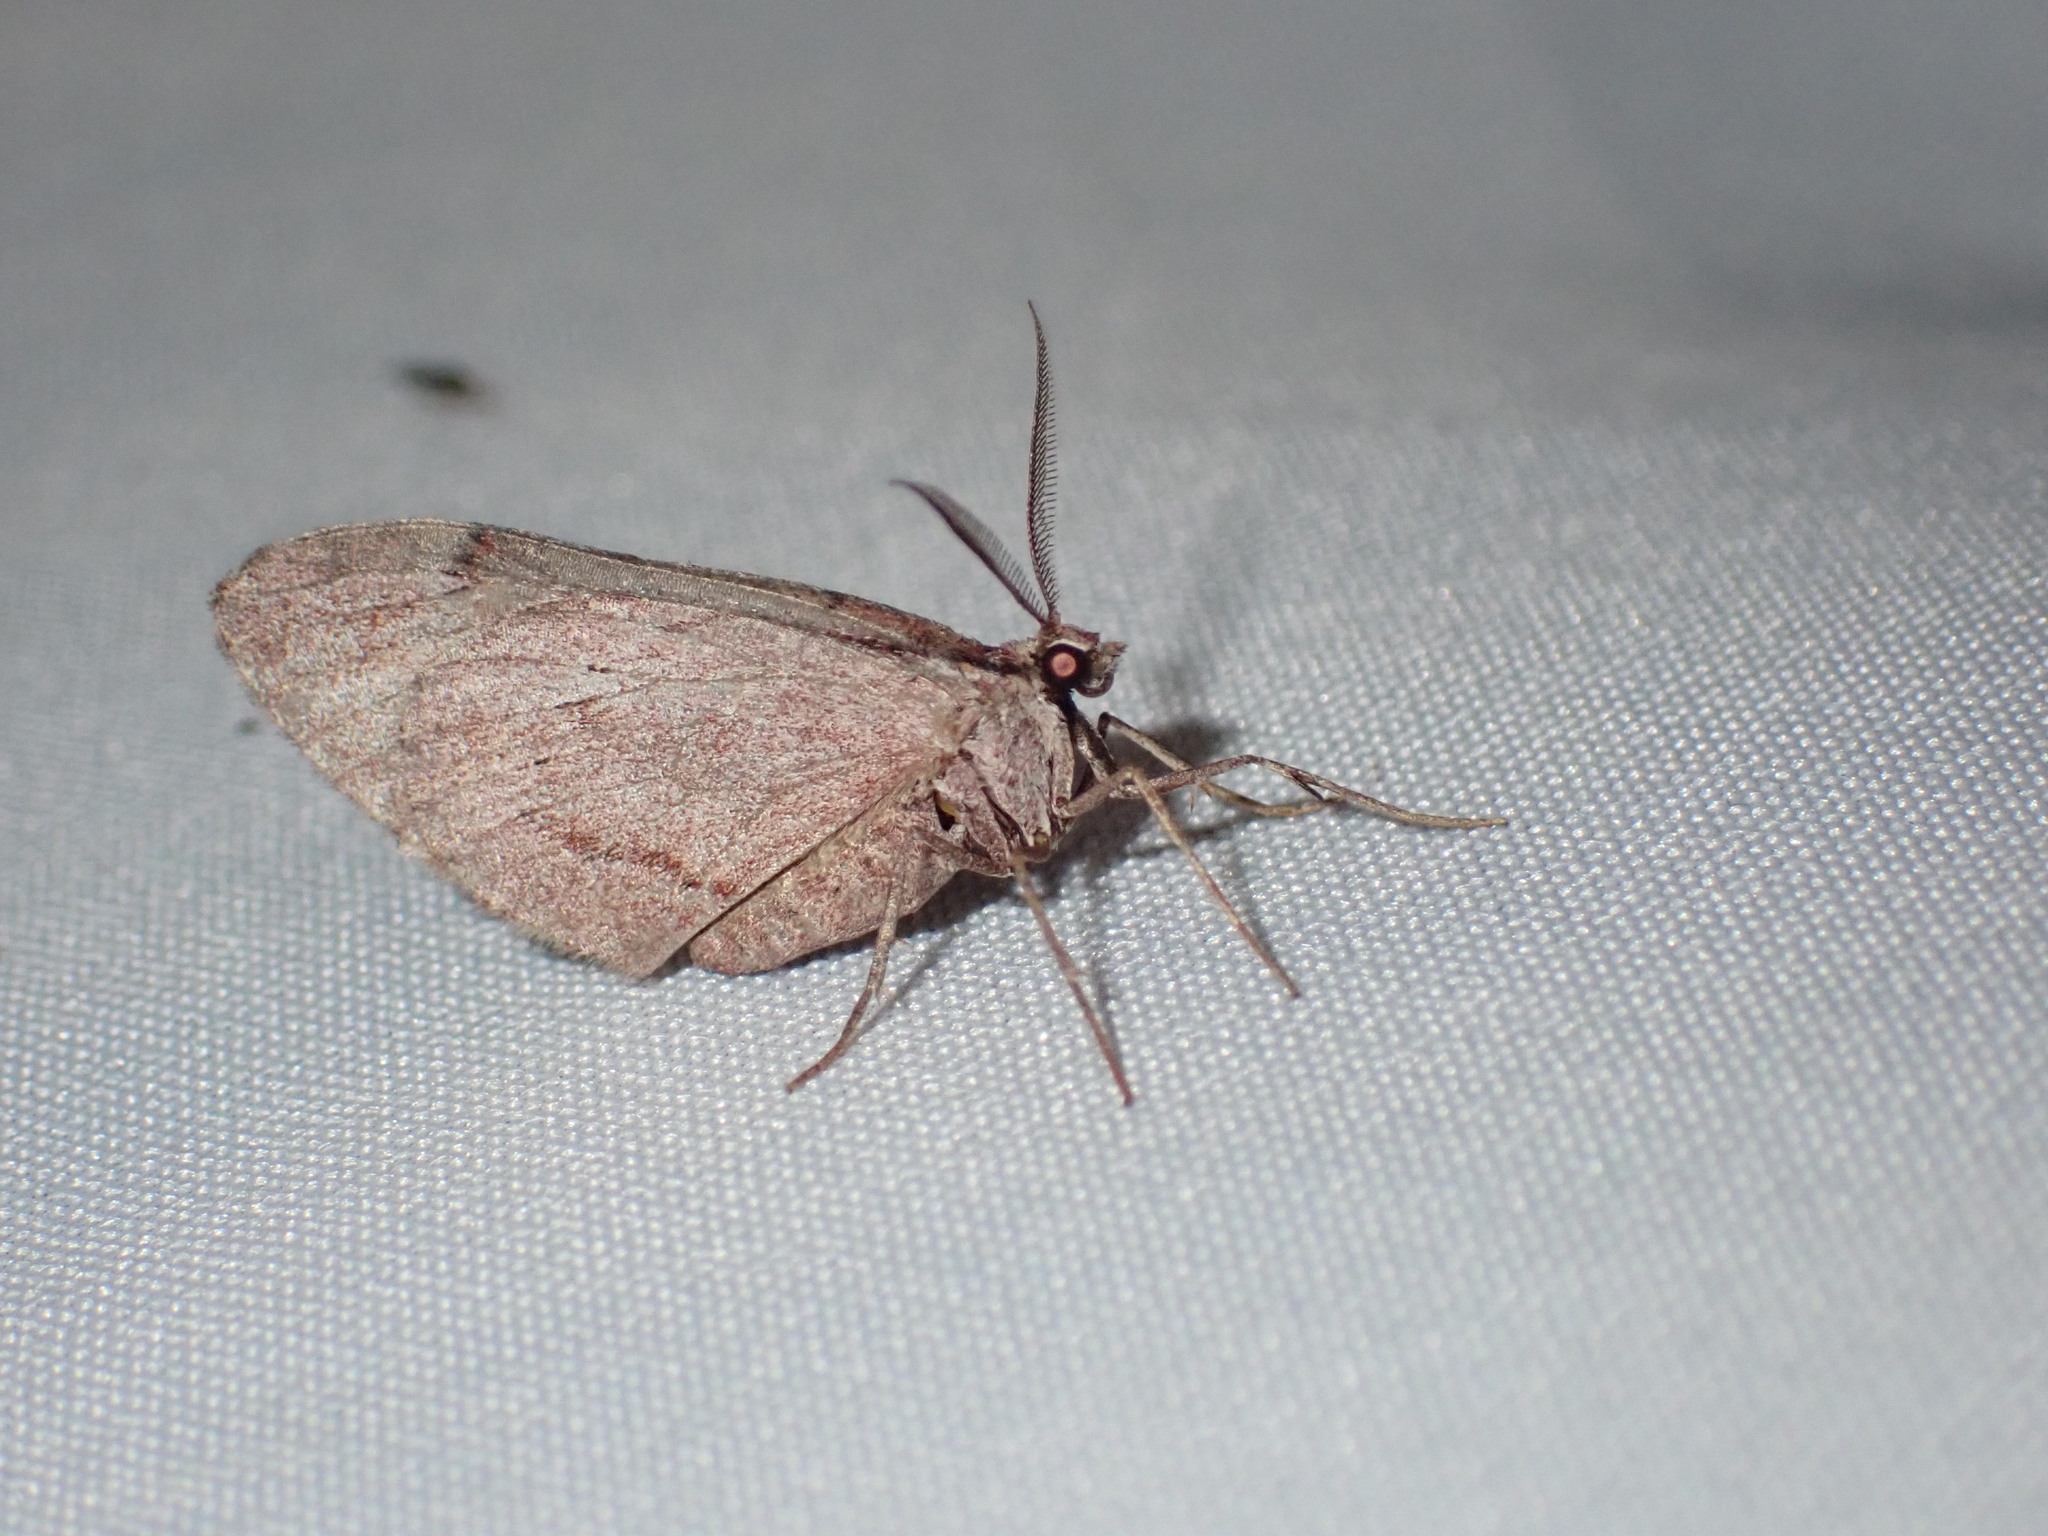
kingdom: Animalia
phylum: Arthropoda
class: Insecta
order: Lepidoptera
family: Geometridae
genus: Stamnoctenis
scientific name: Stamnoctenis pearsalli
